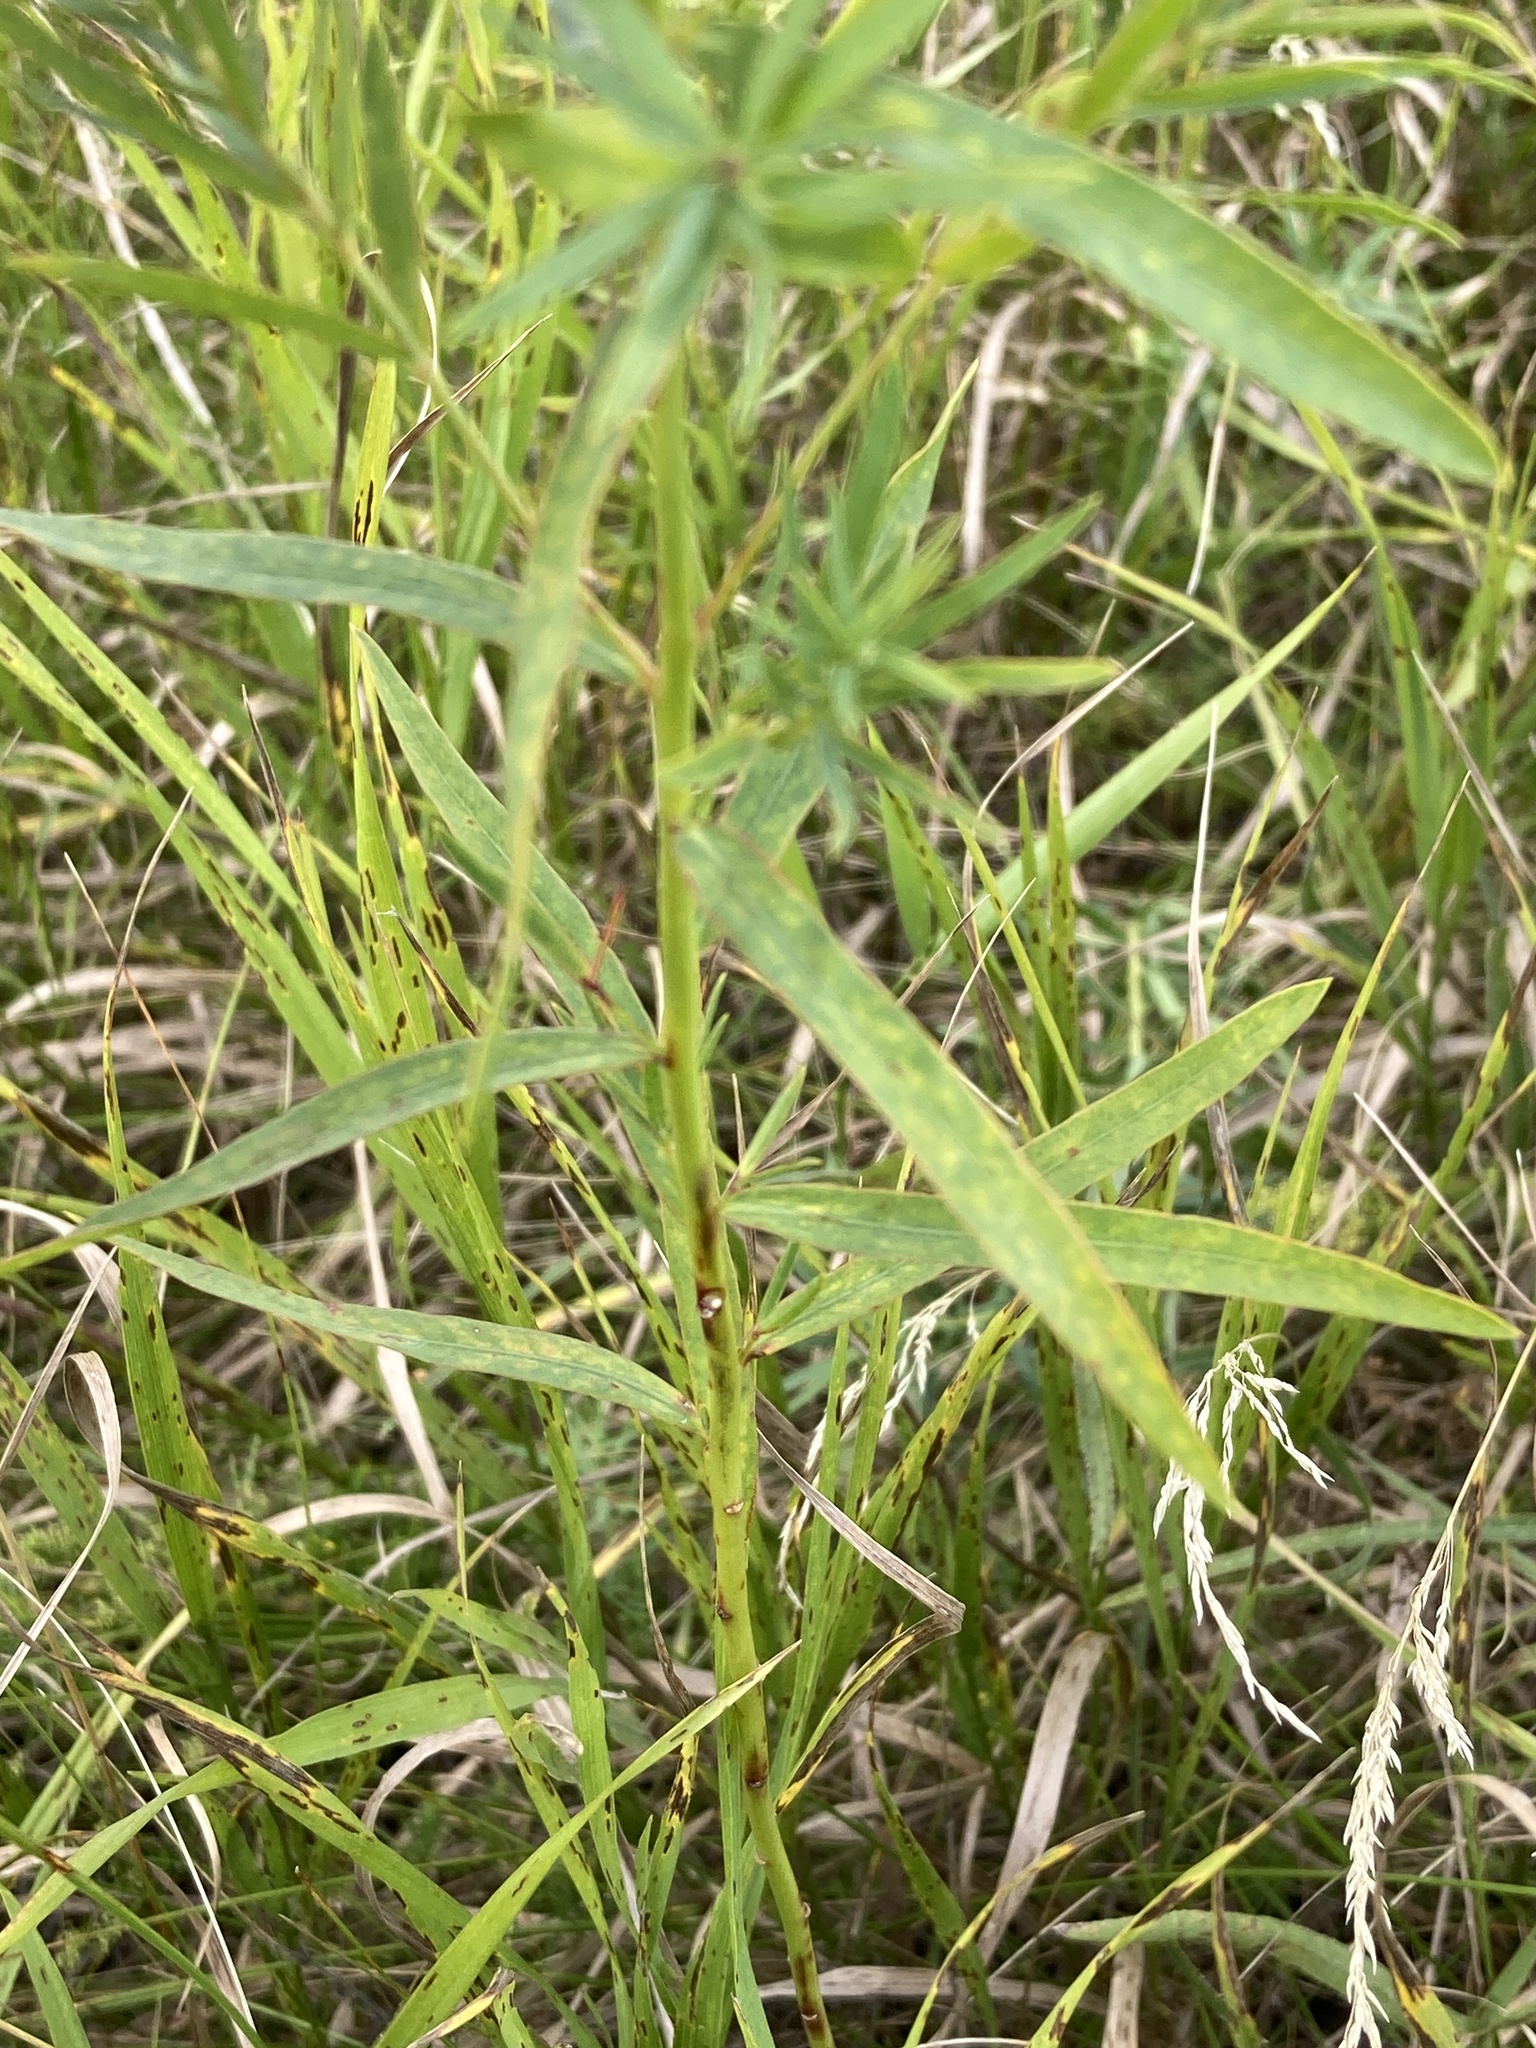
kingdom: Plantae
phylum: Tracheophyta
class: Magnoliopsida
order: Malpighiales
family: Euphorbiaceae
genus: Euphorbia
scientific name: Euphorbia virgata
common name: Leafy spurge
